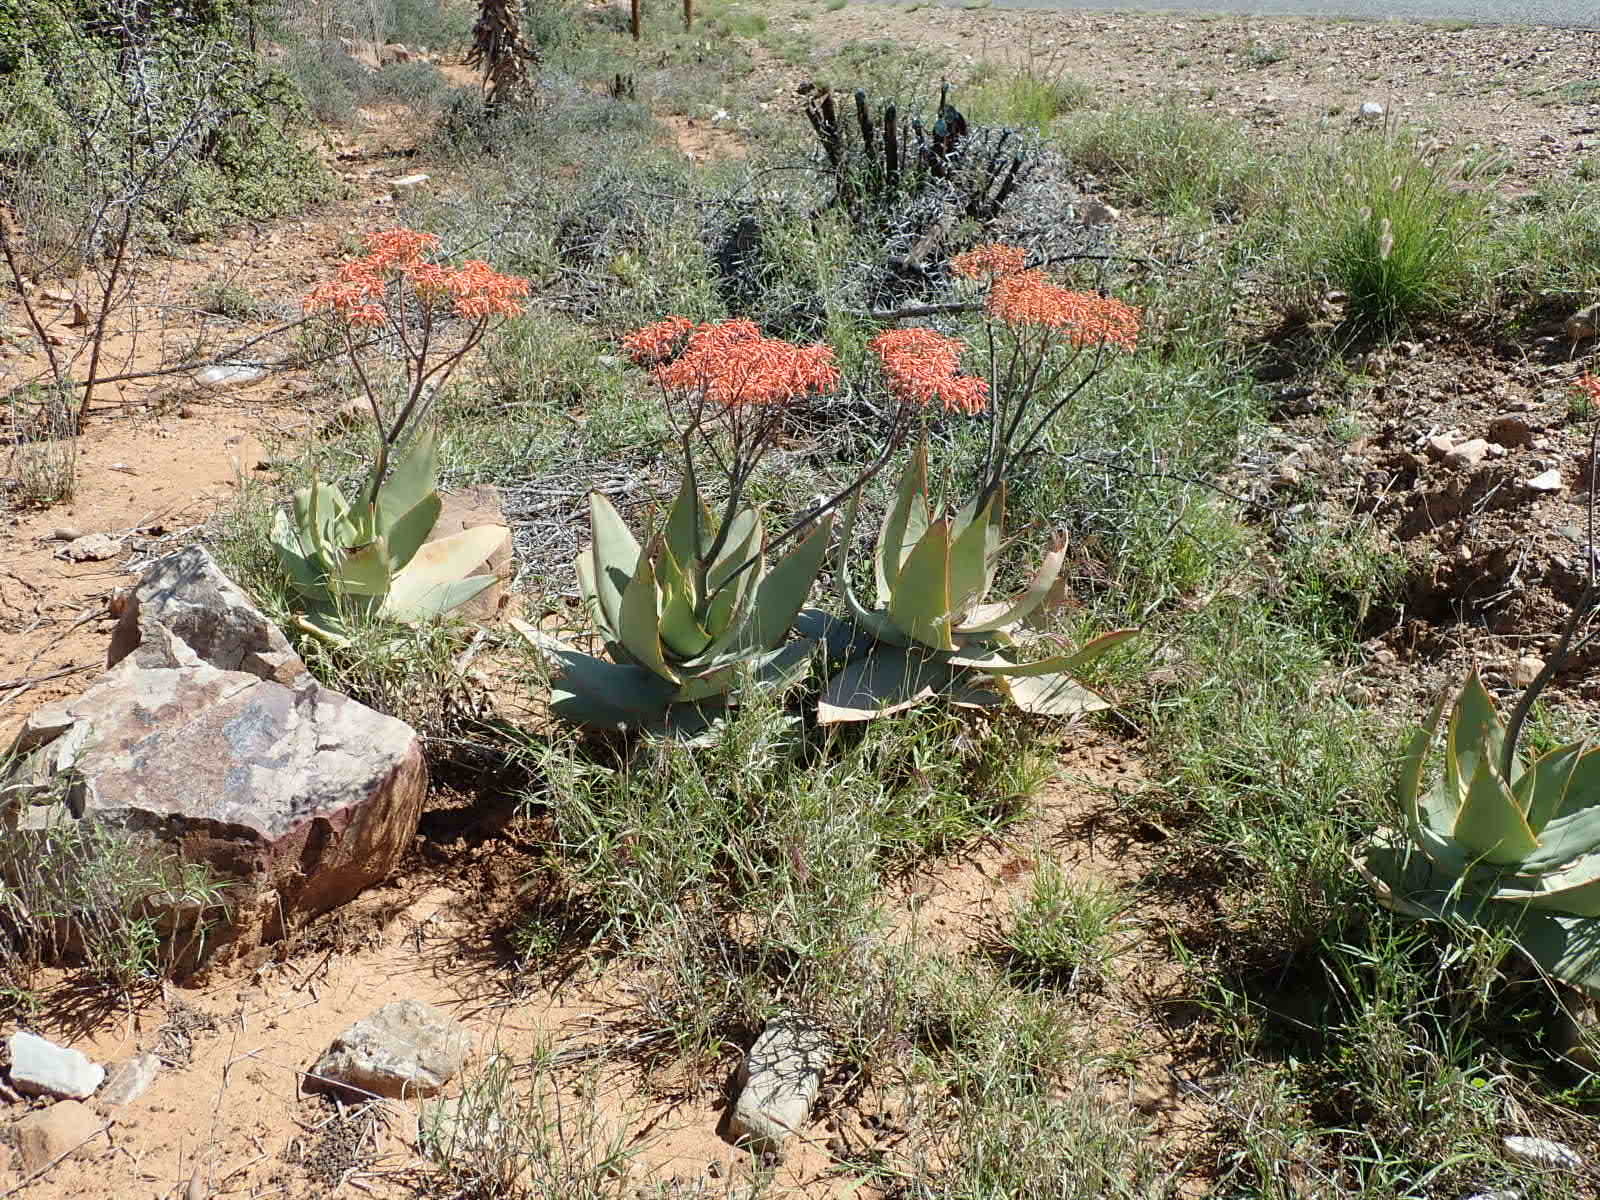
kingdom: Plantae
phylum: Tracheophyta
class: Liliopsida
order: Asparagales
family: Asphodelaceae
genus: Aloe
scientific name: Aloe striata
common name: Coral aloe
